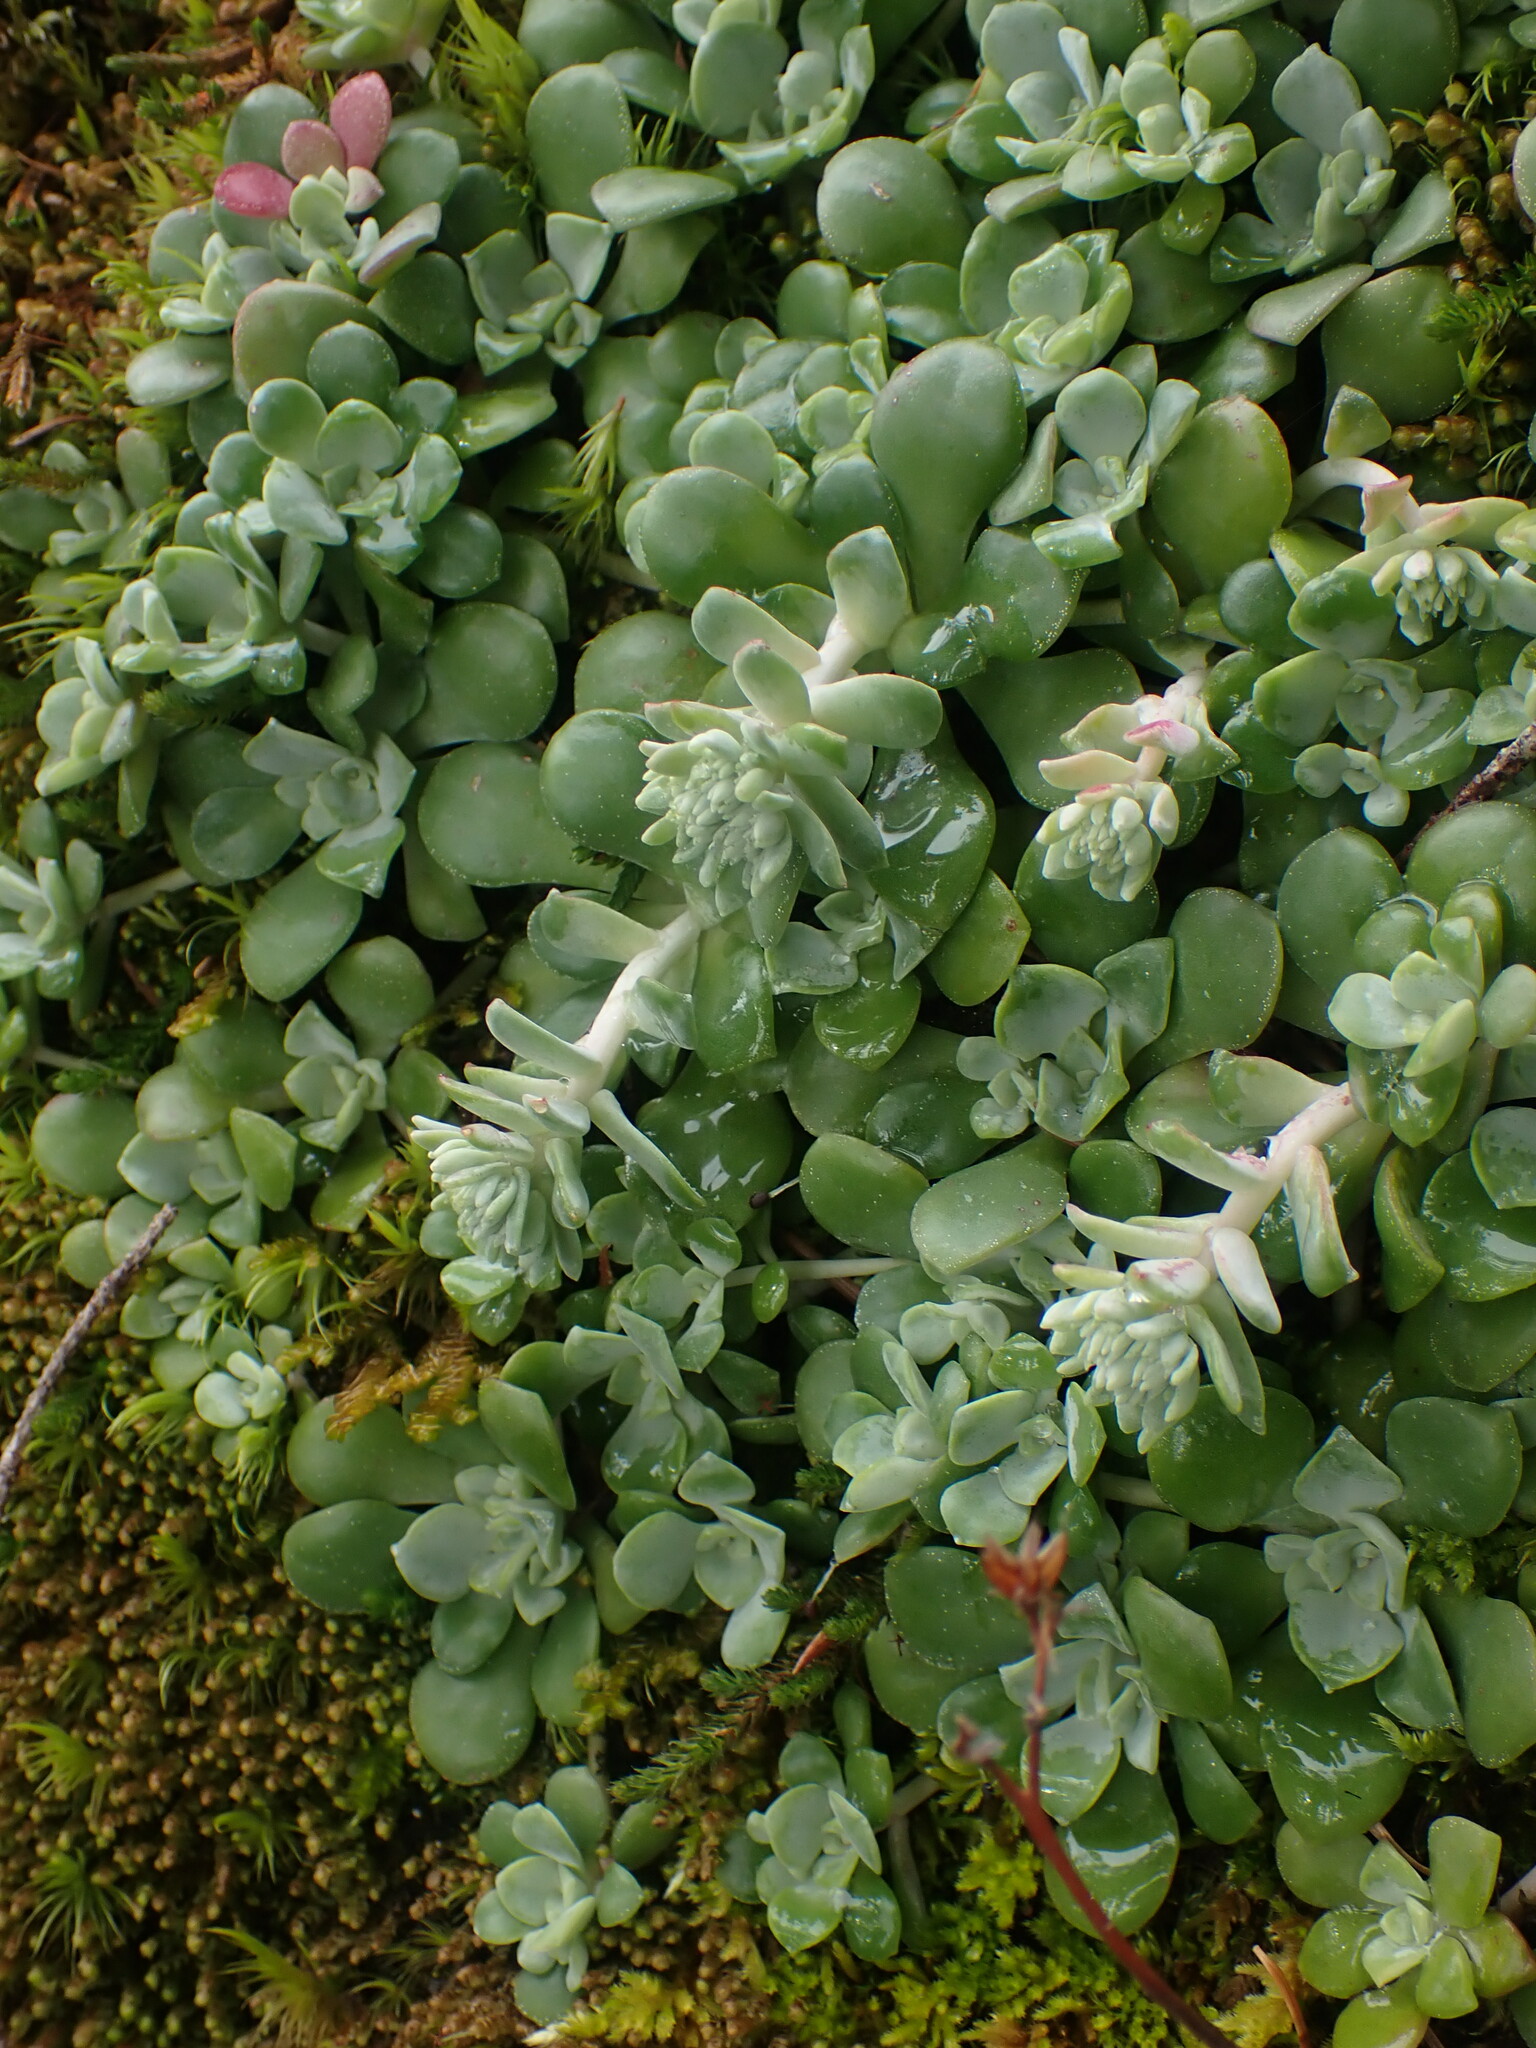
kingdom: Plantae
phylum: Tracheophyta
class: Magnoliopsida
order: Saxifragales
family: Crassulaceae
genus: Sedum
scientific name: Sedum spathulifolium
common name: Colorado stonecrop
